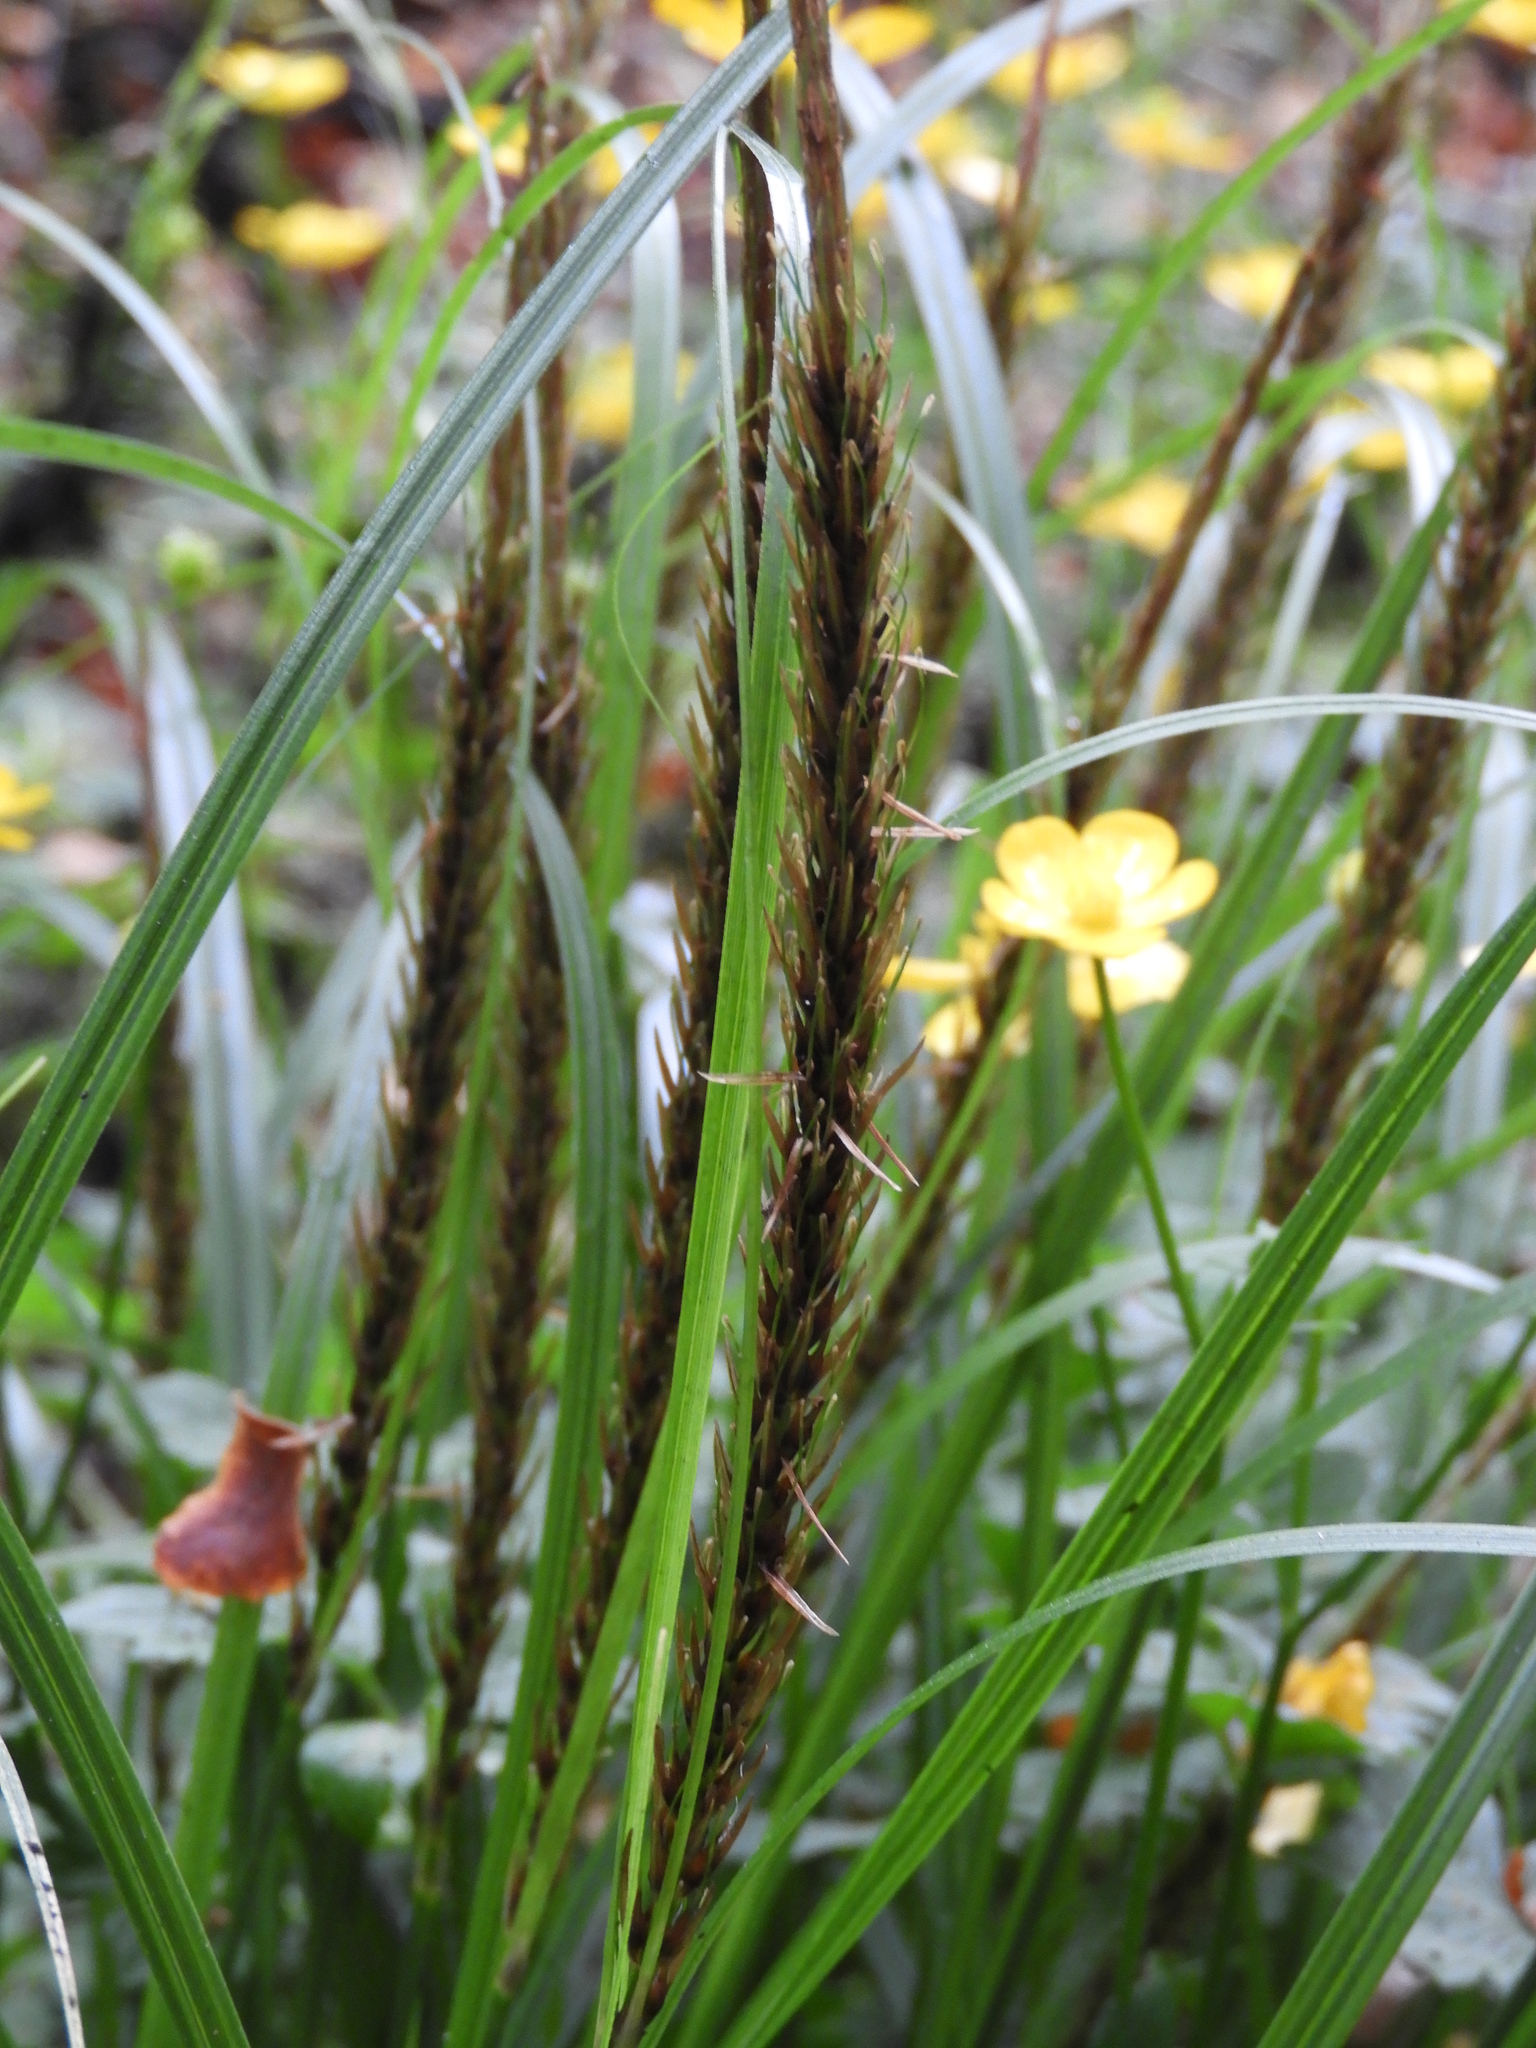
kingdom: Plantae
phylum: Tracheophyta
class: Liliopsida
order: Poales
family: Cyperaceae
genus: Carex
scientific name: Carex megalepis
